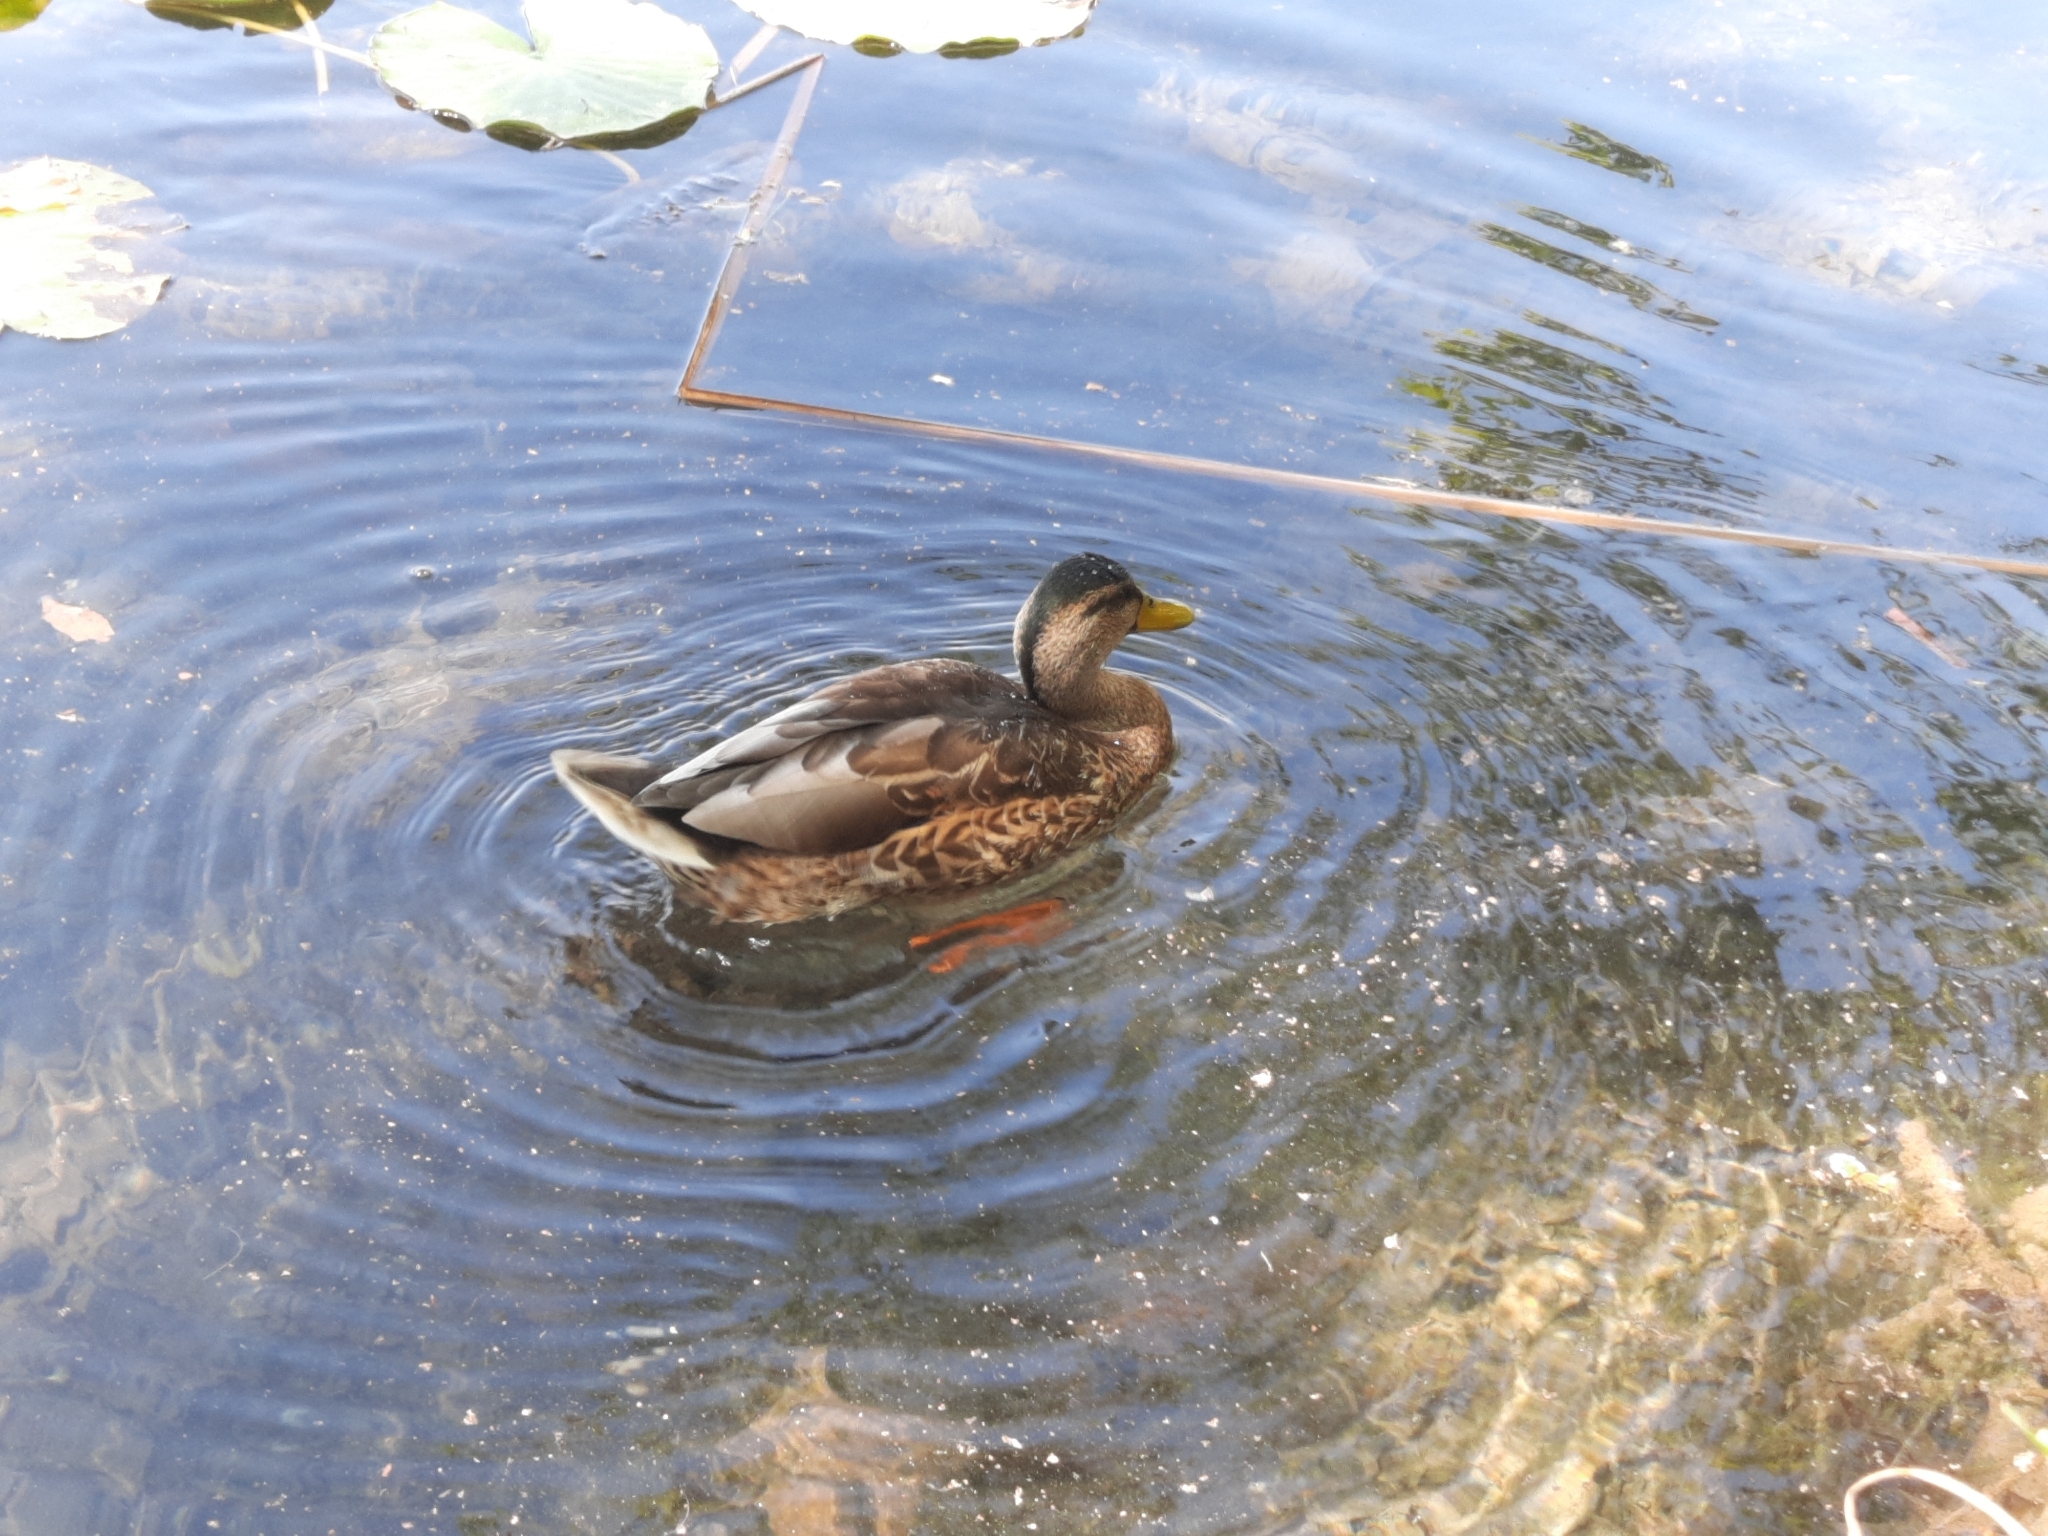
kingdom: Animalia
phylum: Chordata
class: Aves
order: Anseriformes
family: Anatidae
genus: Anas
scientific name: Anas platyrhynchos
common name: Mallard
